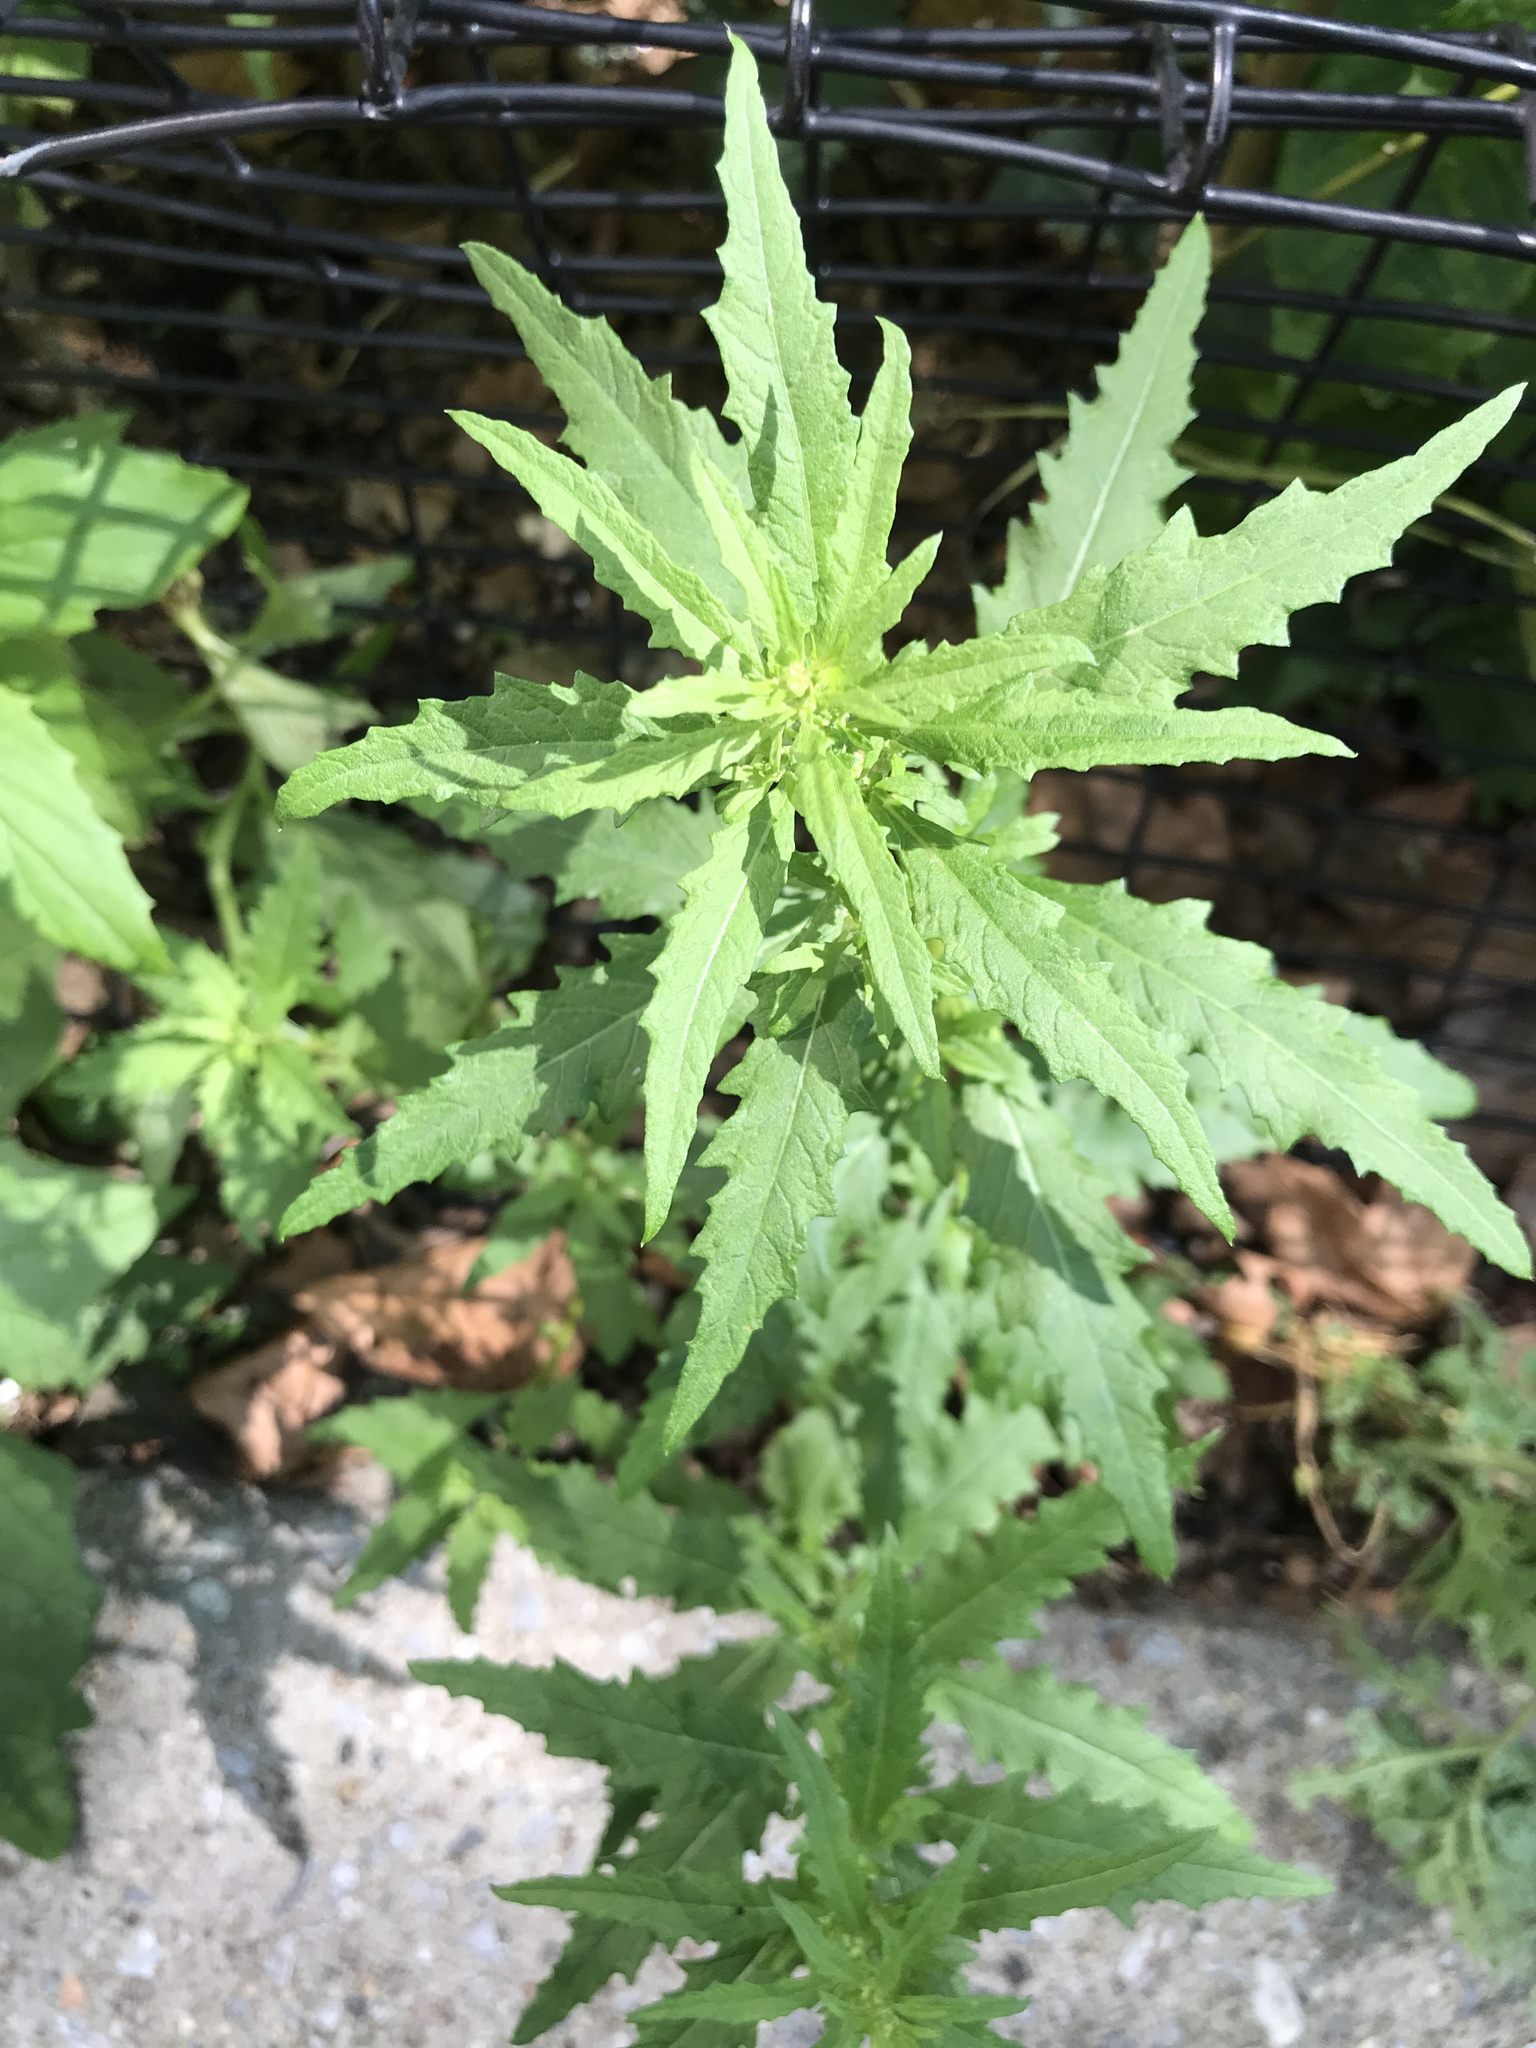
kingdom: Plantae
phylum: Tracheophyta
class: Magnoliopsida
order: Caryophyllales
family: Amaranthaceae
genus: Dysphania
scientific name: Dysphania ambrosioides
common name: Wormseed
